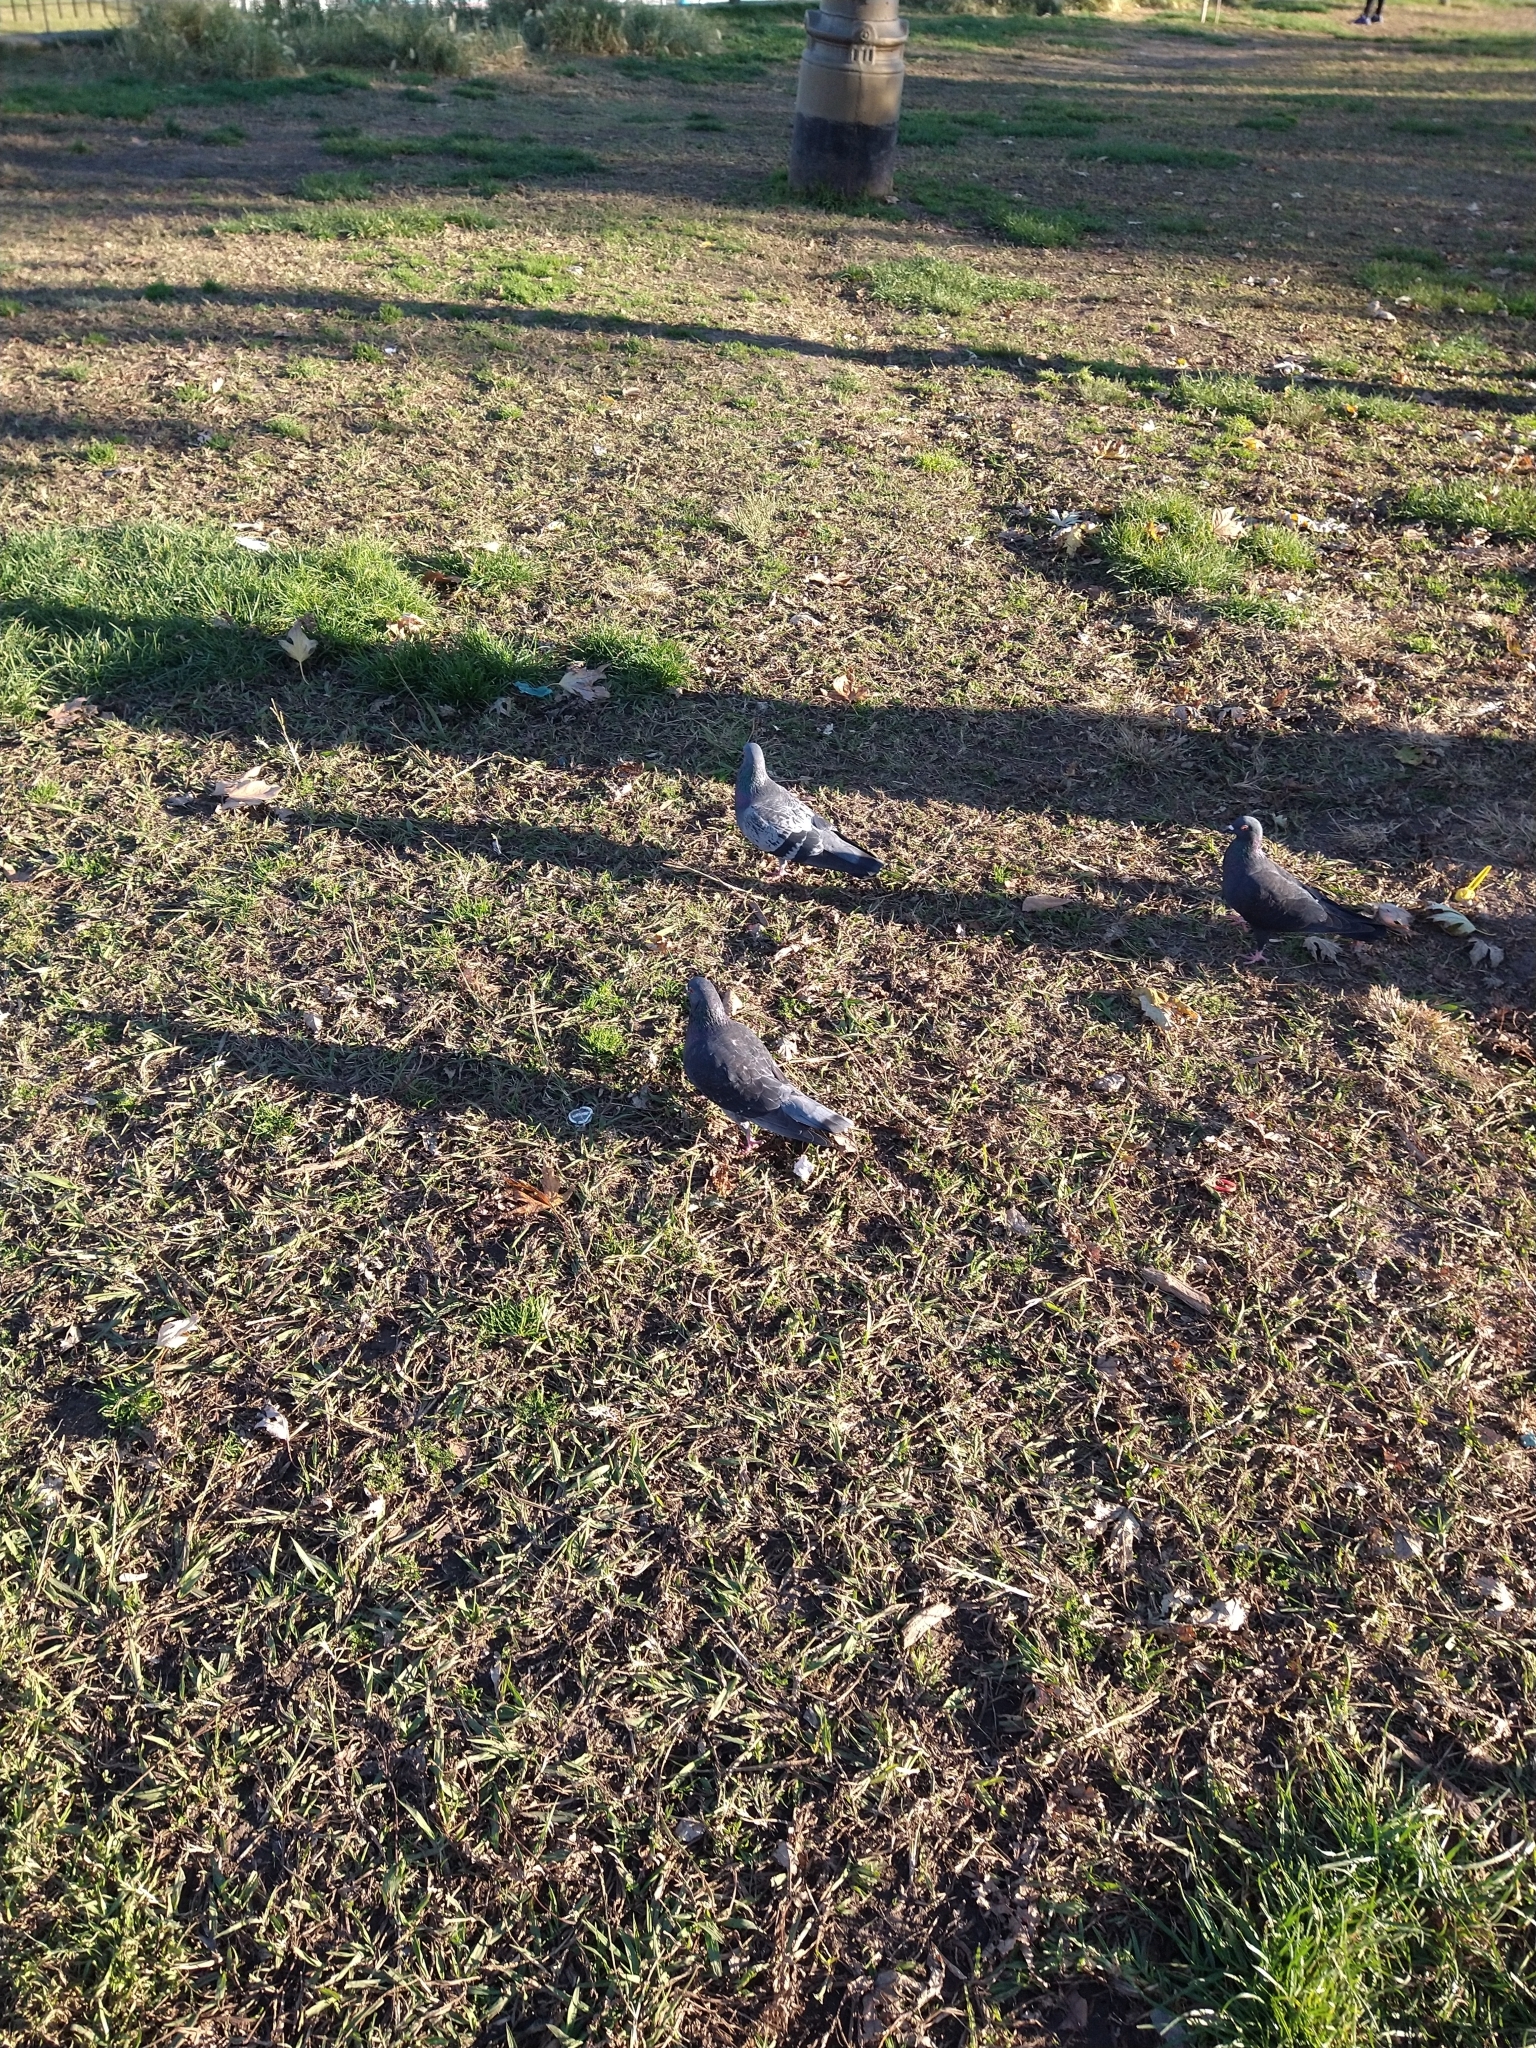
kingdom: Animalia
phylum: Chordata
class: Aves
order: Columbiformes
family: Columbidae
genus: Columba
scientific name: Columba livia
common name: Rock pigeon
